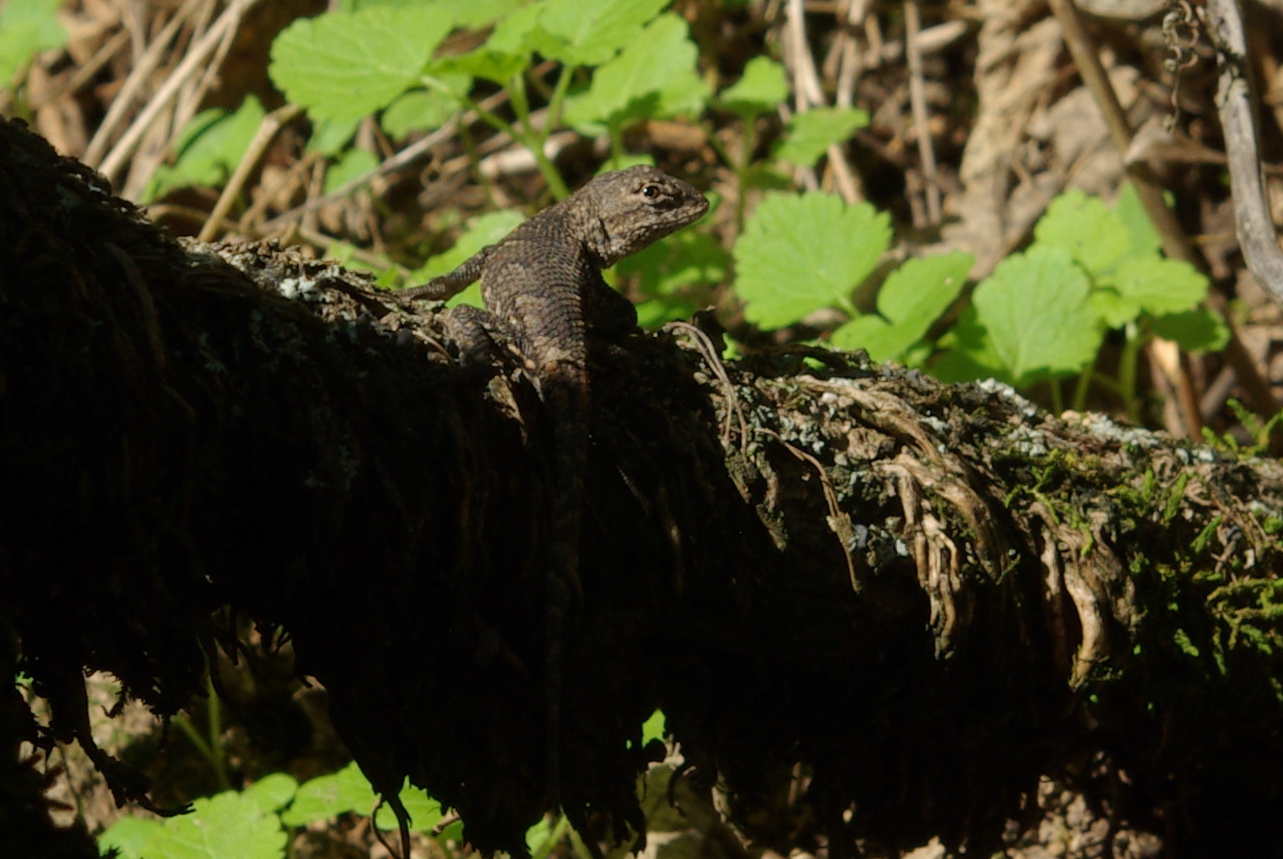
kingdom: Animalia
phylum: Chordata
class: Squamata
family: Phrynosomatidae
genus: Sceloporus
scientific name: Sceloporus consobrinus
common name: Southern prairie lizard
